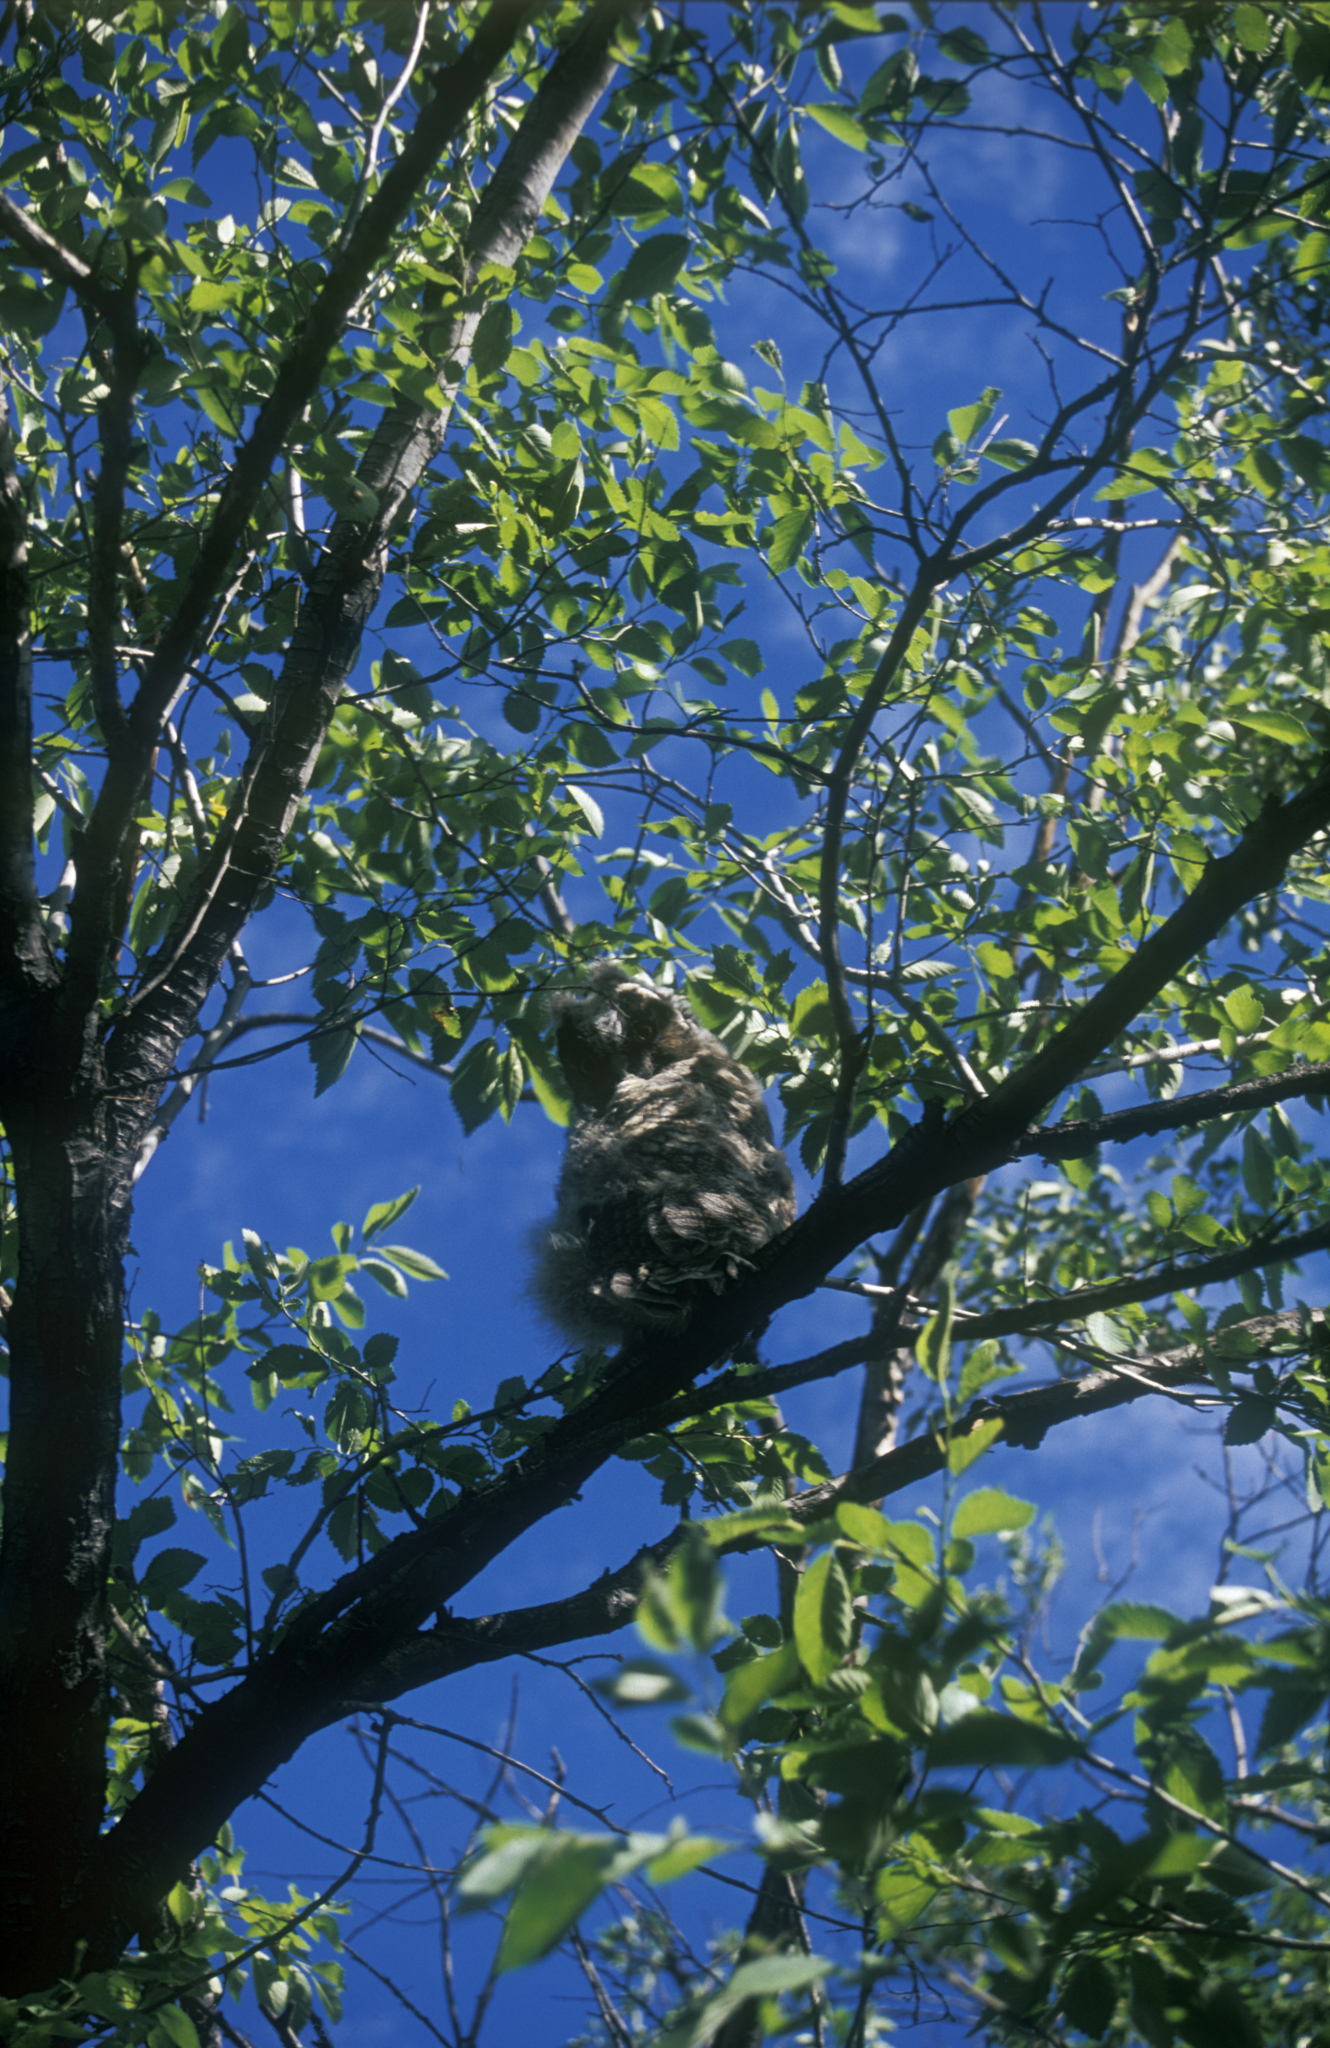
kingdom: Animalia
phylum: Chordata
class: Aves
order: Strigiformes
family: Strigidae
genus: Asio
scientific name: Asio otus
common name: Long-eared owl
